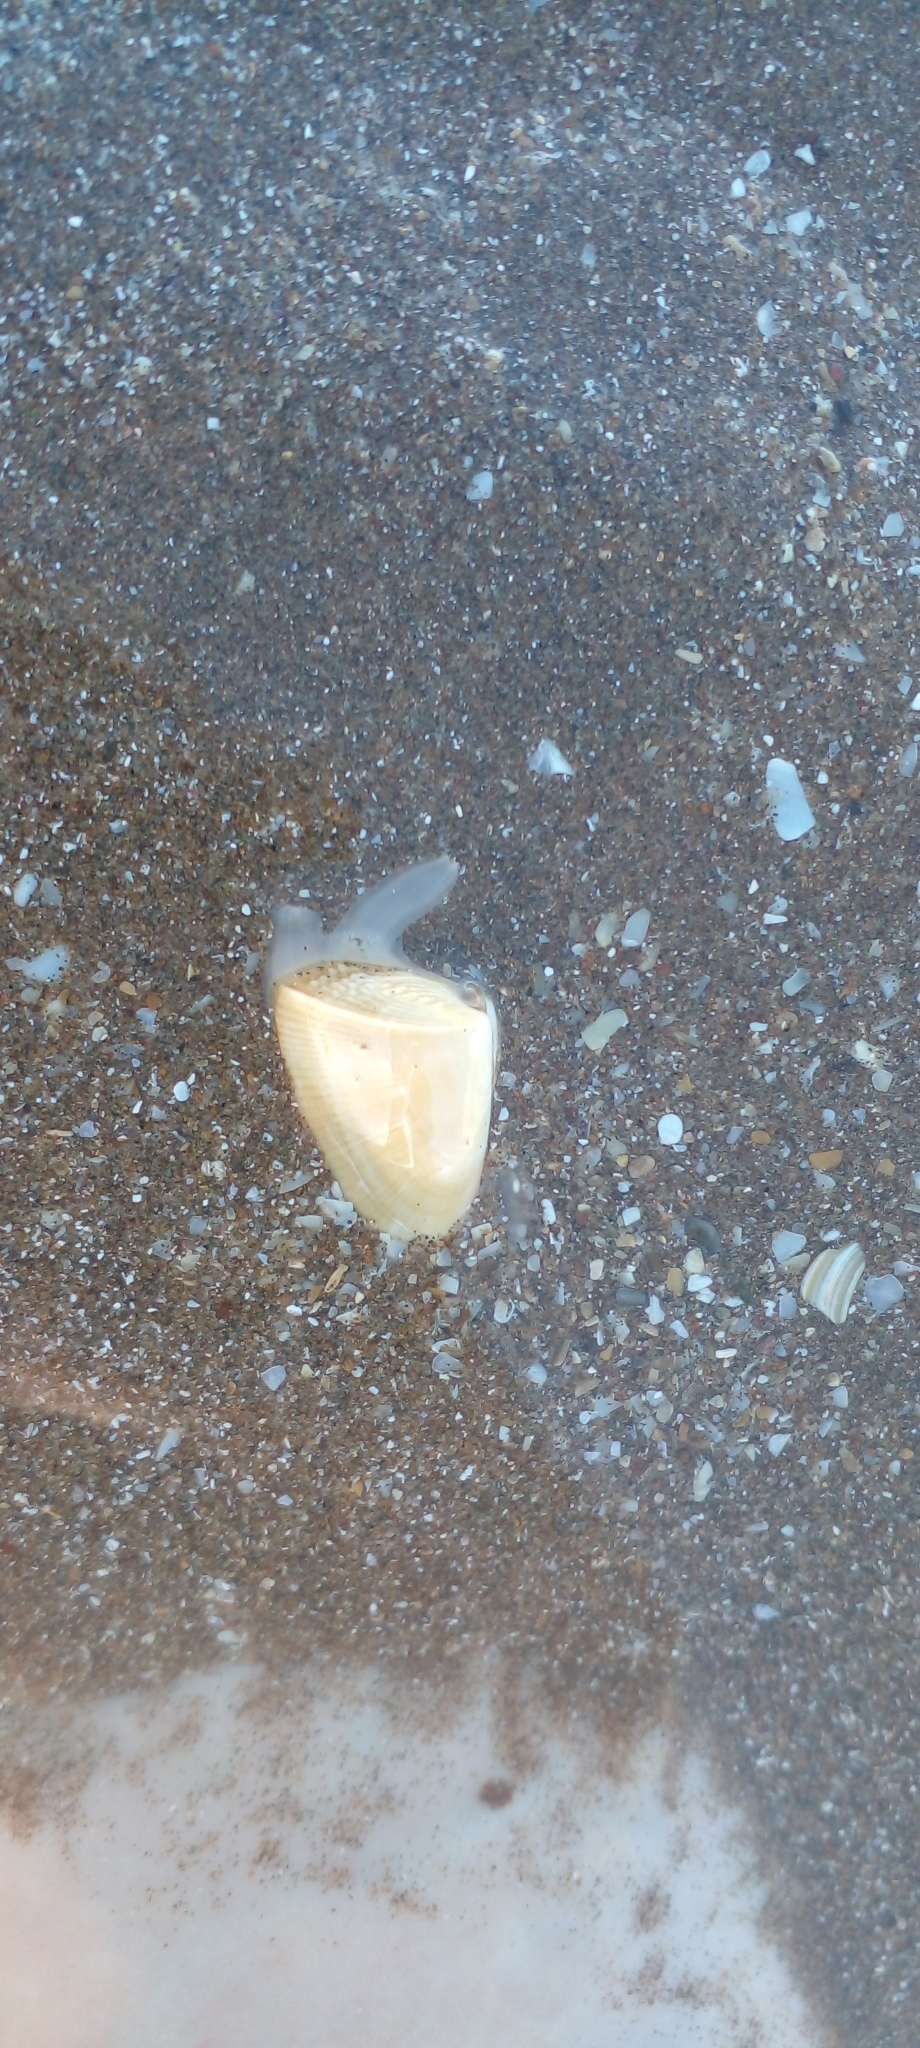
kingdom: Animalia
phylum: Mollusca
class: Bivalvia
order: Cardiida
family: Donacidae
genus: Donax
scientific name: Donax hanleyanus
